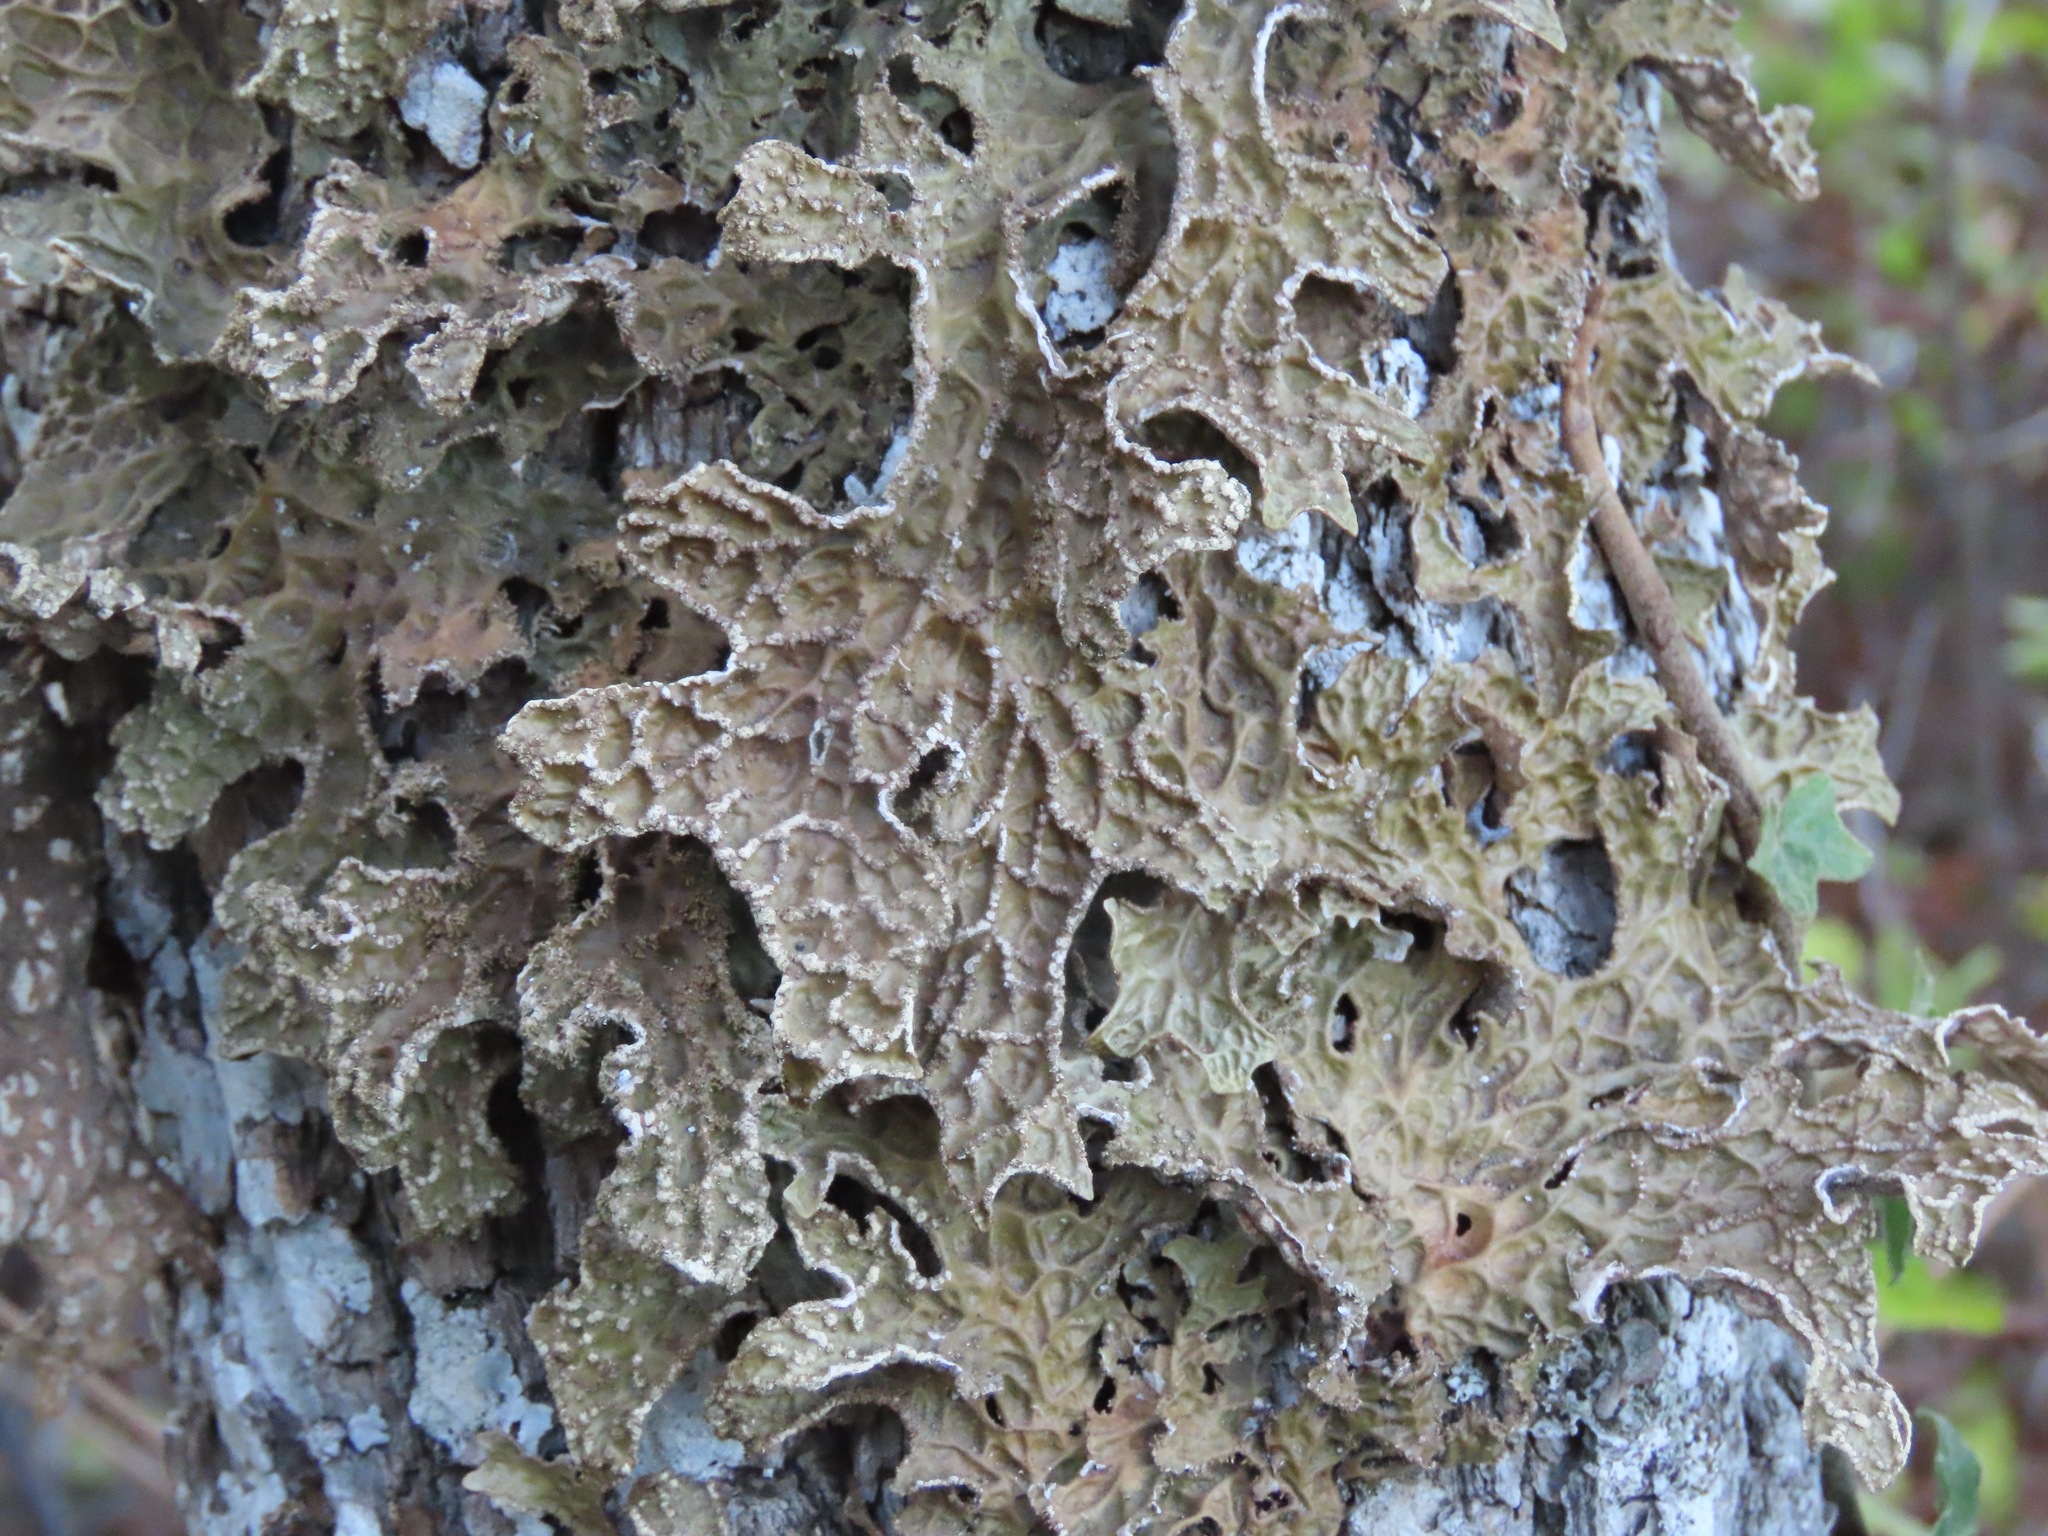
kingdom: Fungi
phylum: Ascomycota
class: Lecanoromycetes
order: Peltigerales
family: Lobariaceae
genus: Lobaria
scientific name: Lobaria pulmonaria
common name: Lungwort
